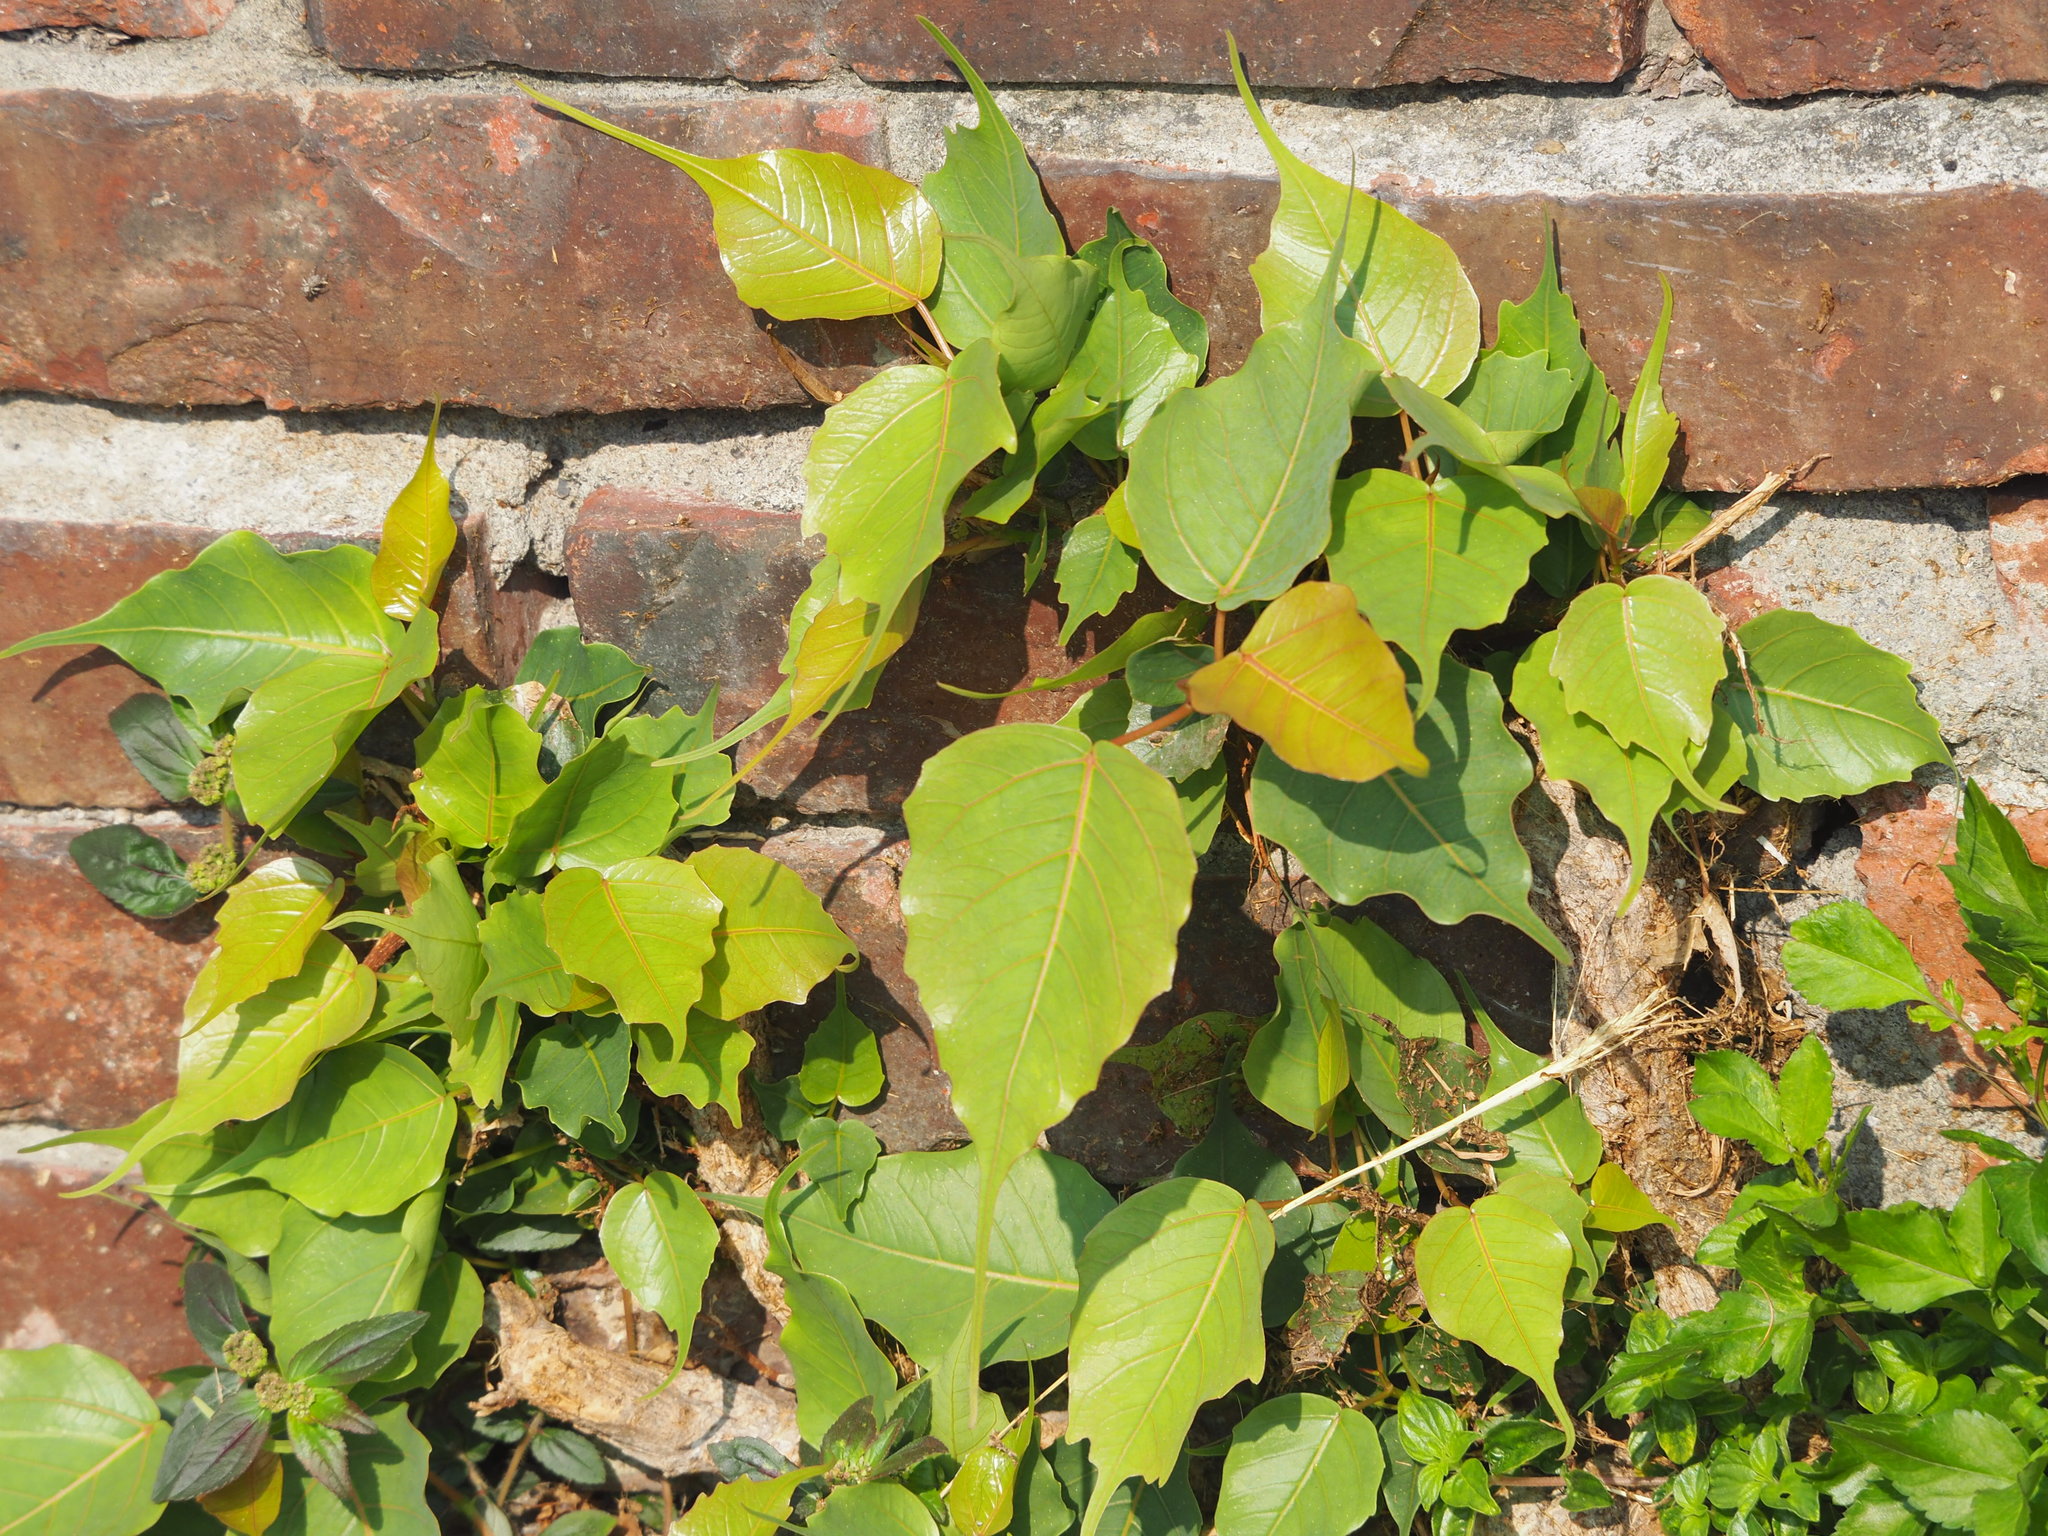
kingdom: Plantae
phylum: Tracheophyta
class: Magnoliopsida
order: Rosales
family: Moraceae
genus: Ficus
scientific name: Ficus religiosa
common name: Bodhi tree
